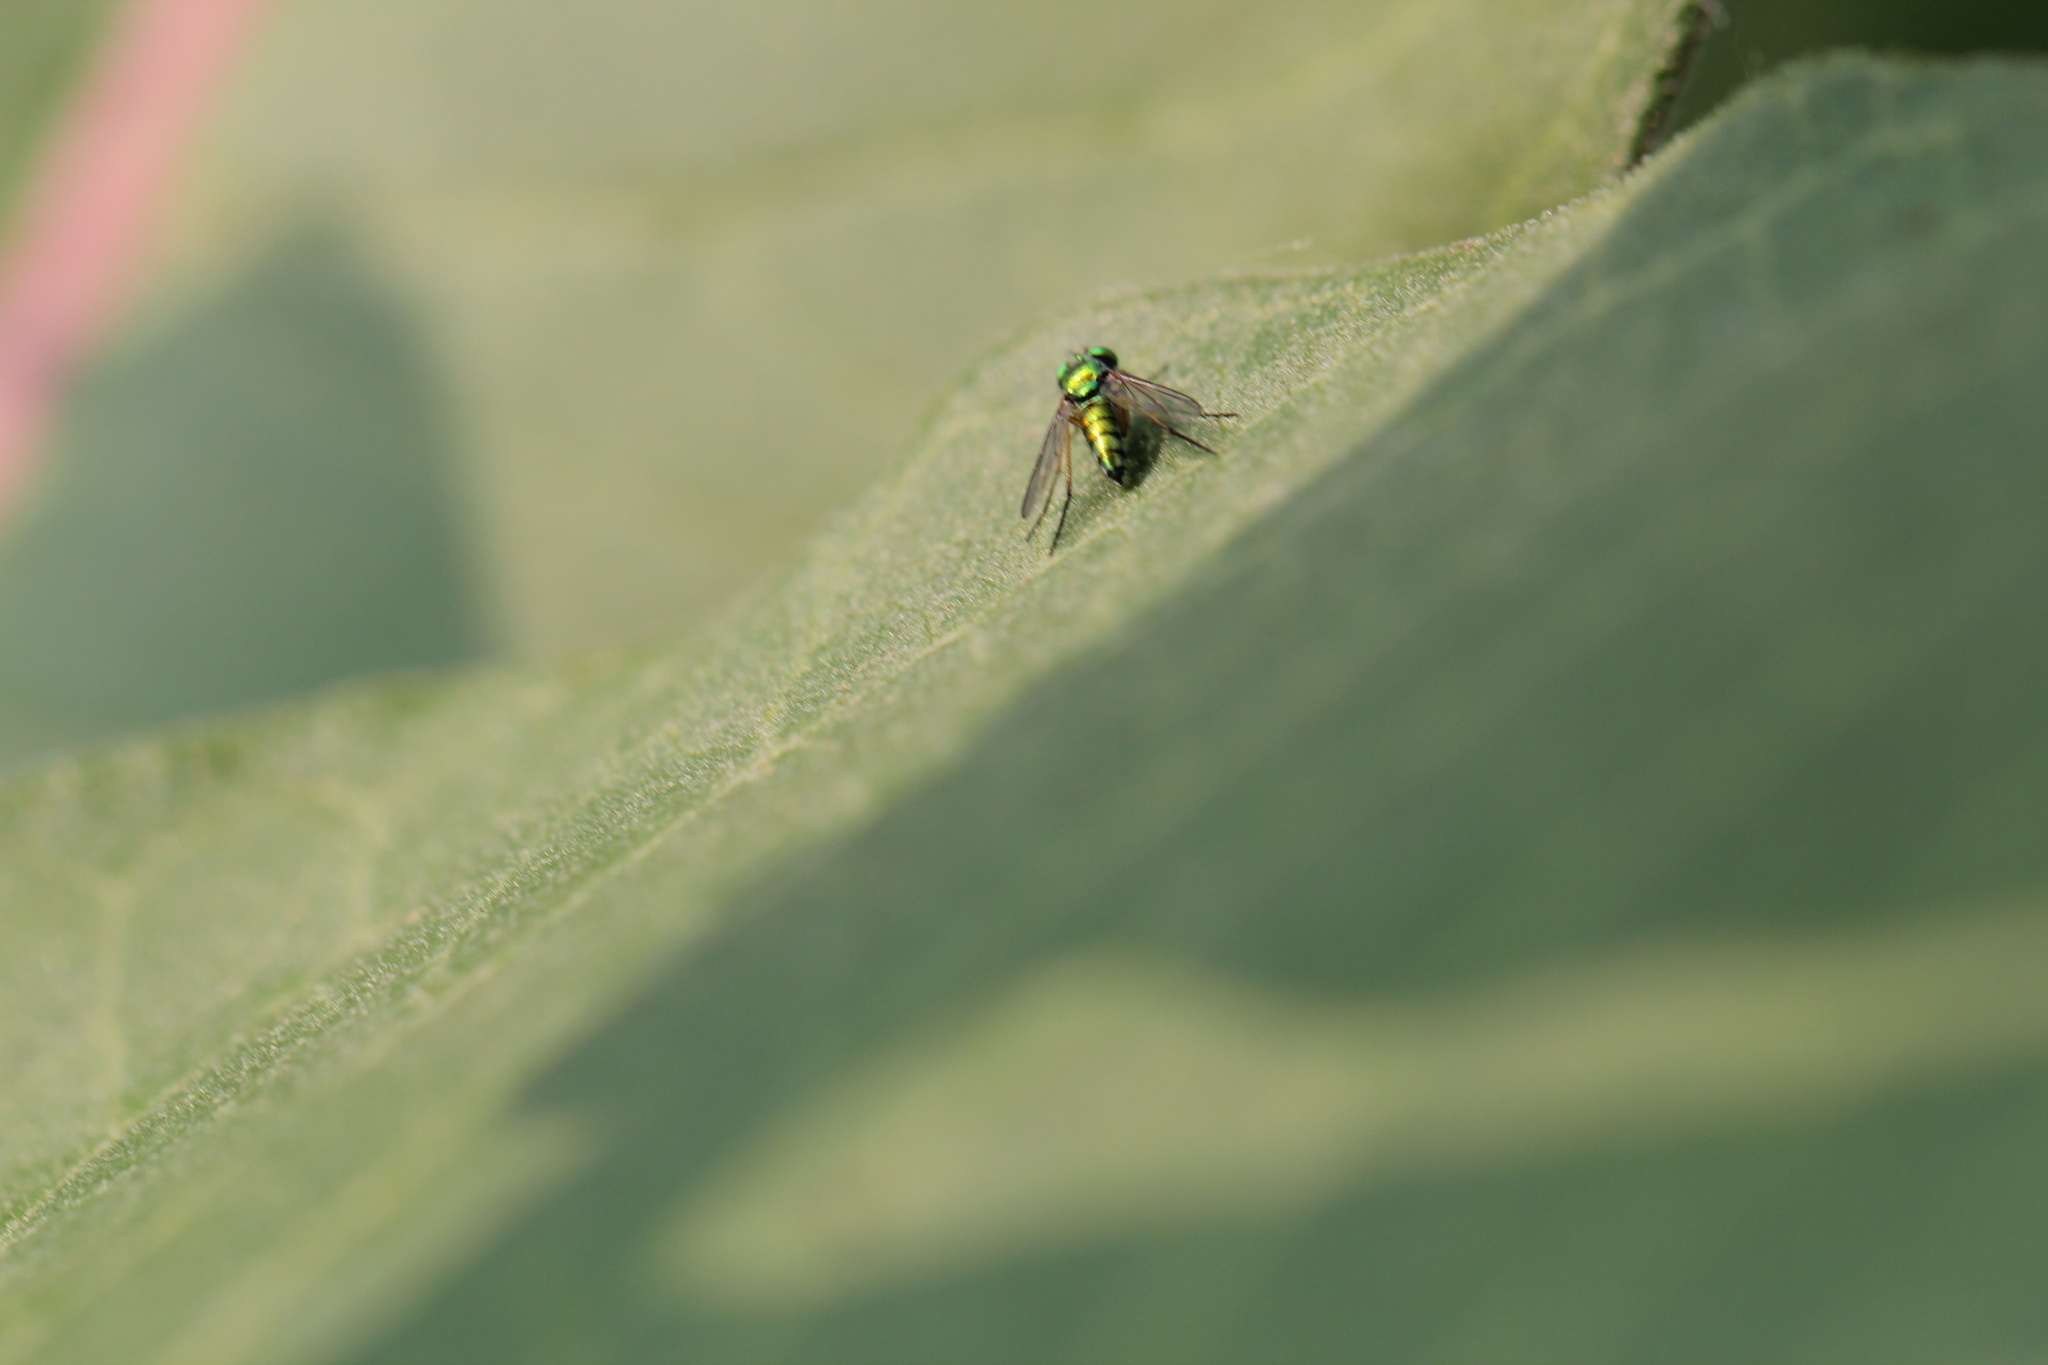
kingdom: Animalia
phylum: Arthropoda
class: Insecta
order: Diptera
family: Dolichopodidae
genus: Condylostylus
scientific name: Condylostylus
